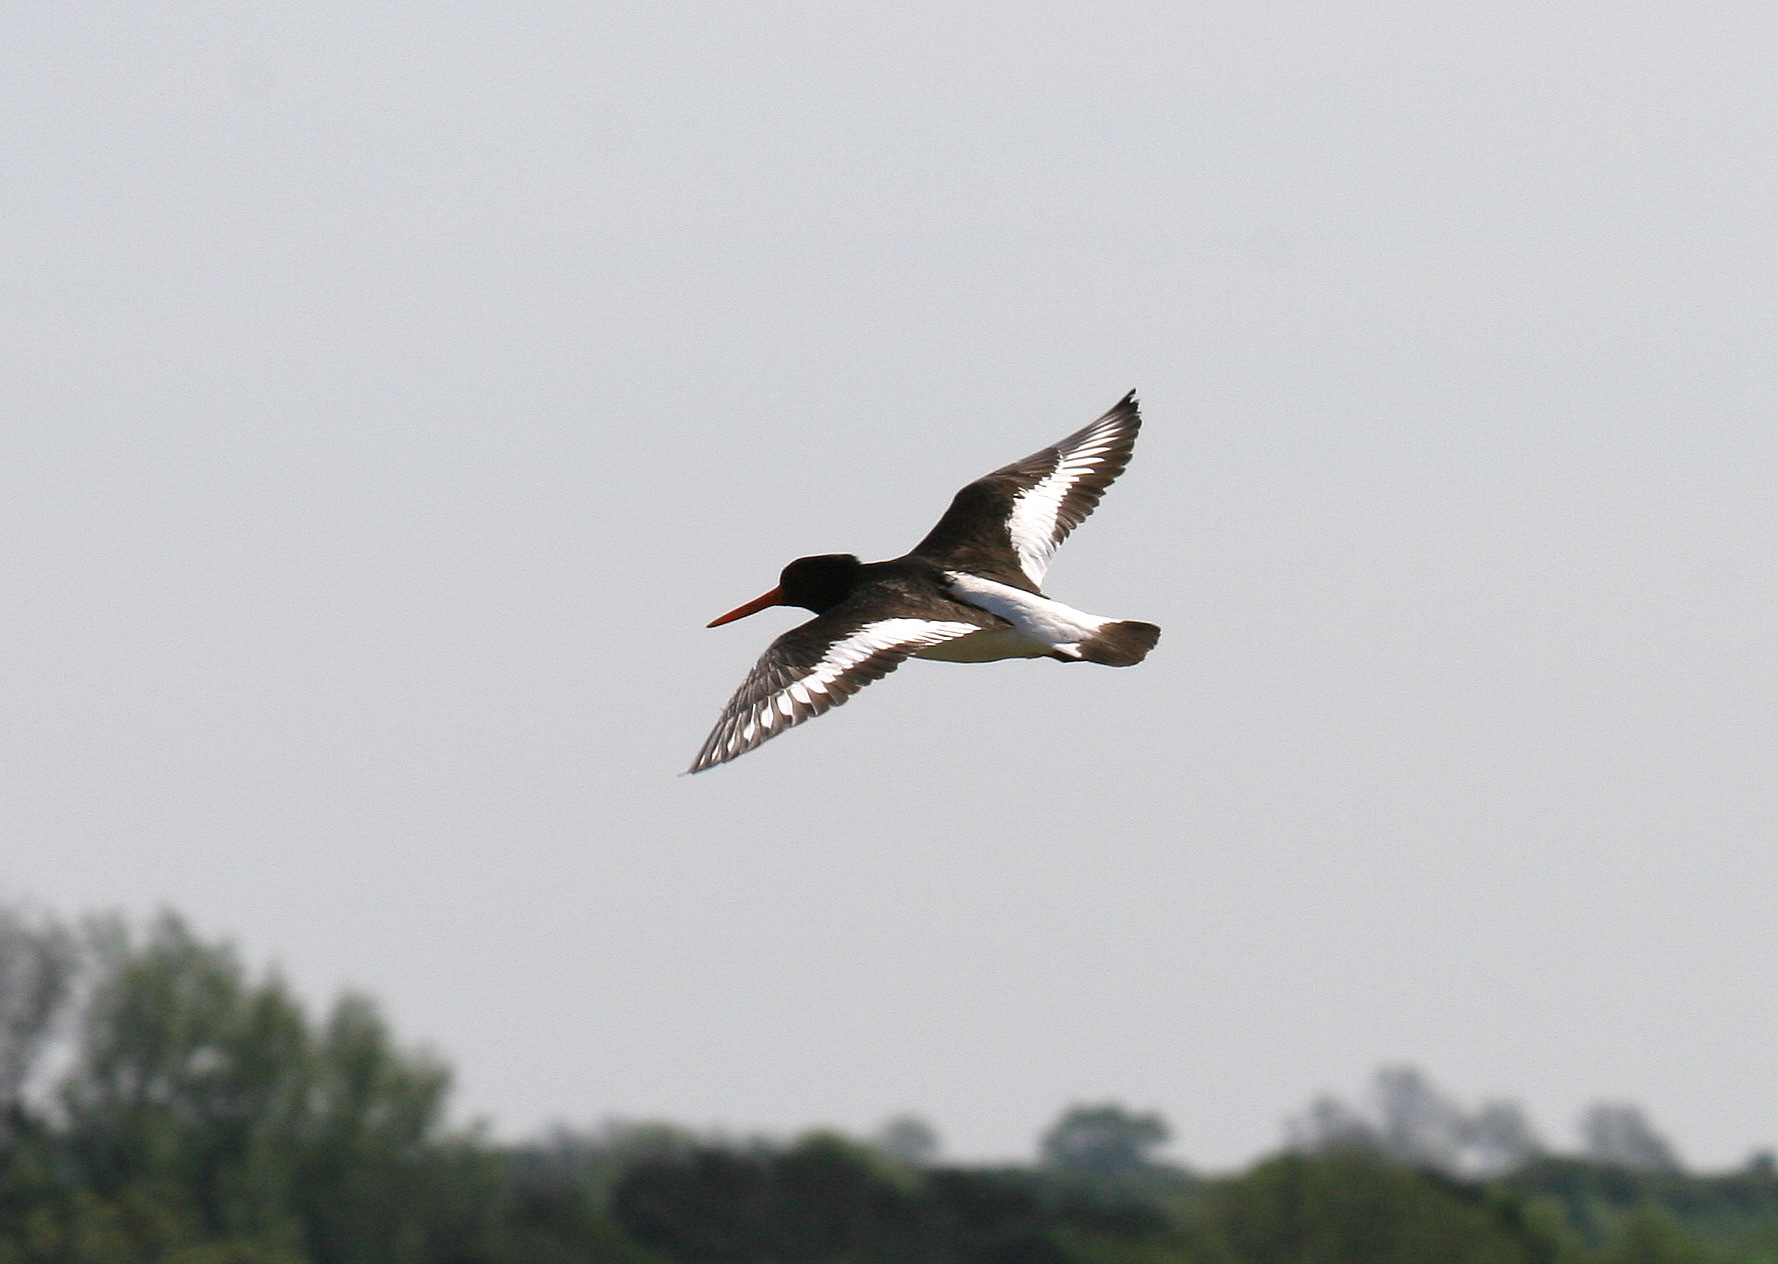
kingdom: Animalia
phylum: Chordata
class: Aves
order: Charadriiformes
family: Haematopodidae
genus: Haematopus
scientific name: Haematopus ostralegus
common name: Eurasian oystercatcher
